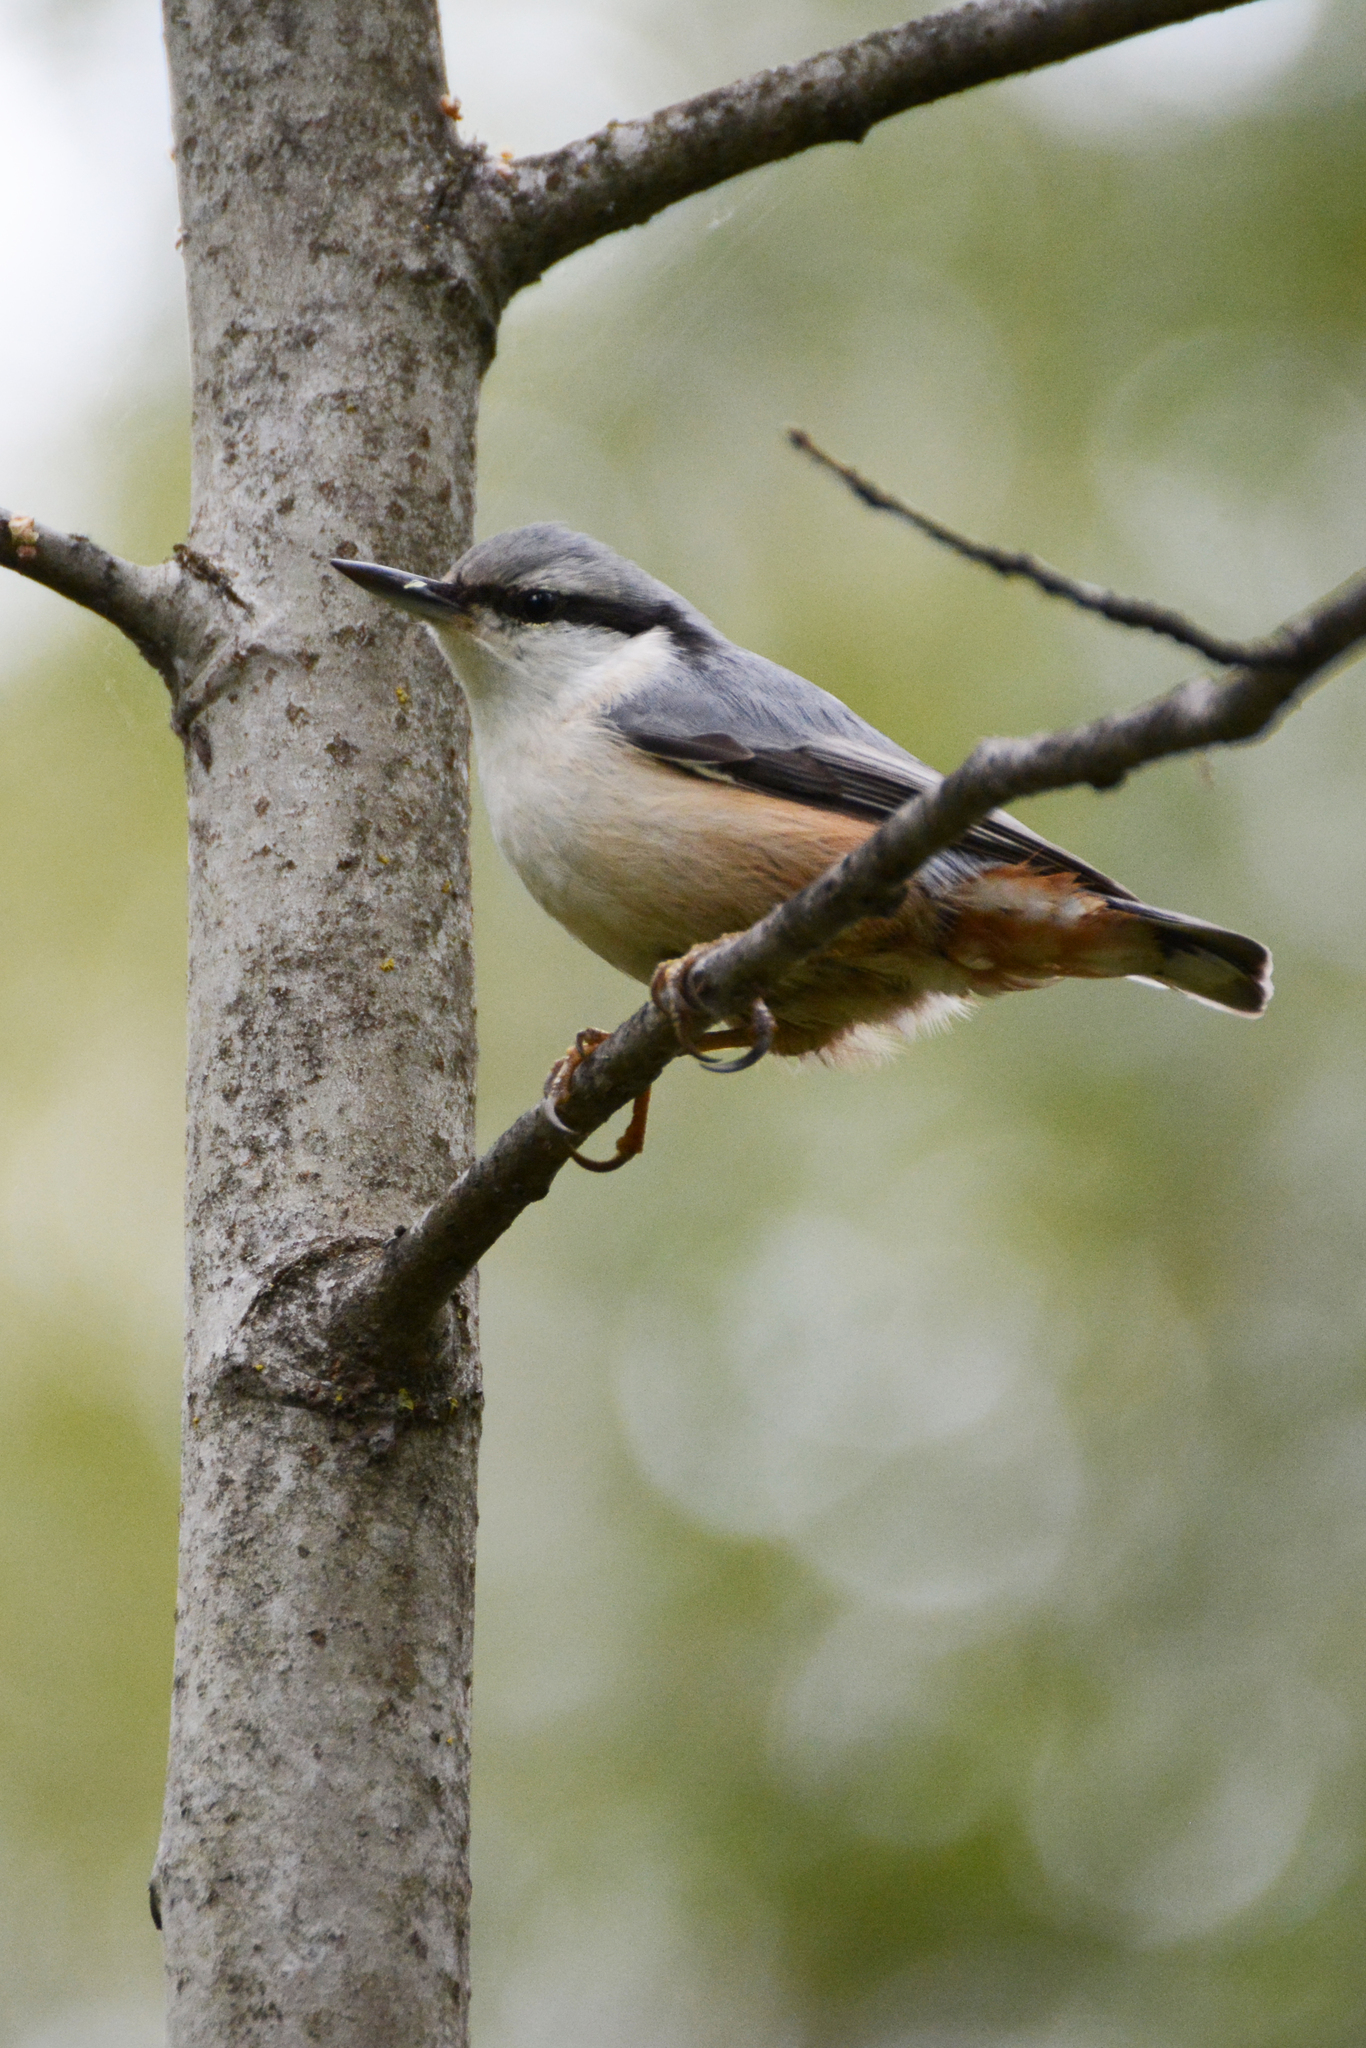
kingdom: Animalia
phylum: Chordata
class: Aves
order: Passeriformes
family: Sittidae
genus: Sitta
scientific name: Sitta europaea
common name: Eurasian nuthatch
